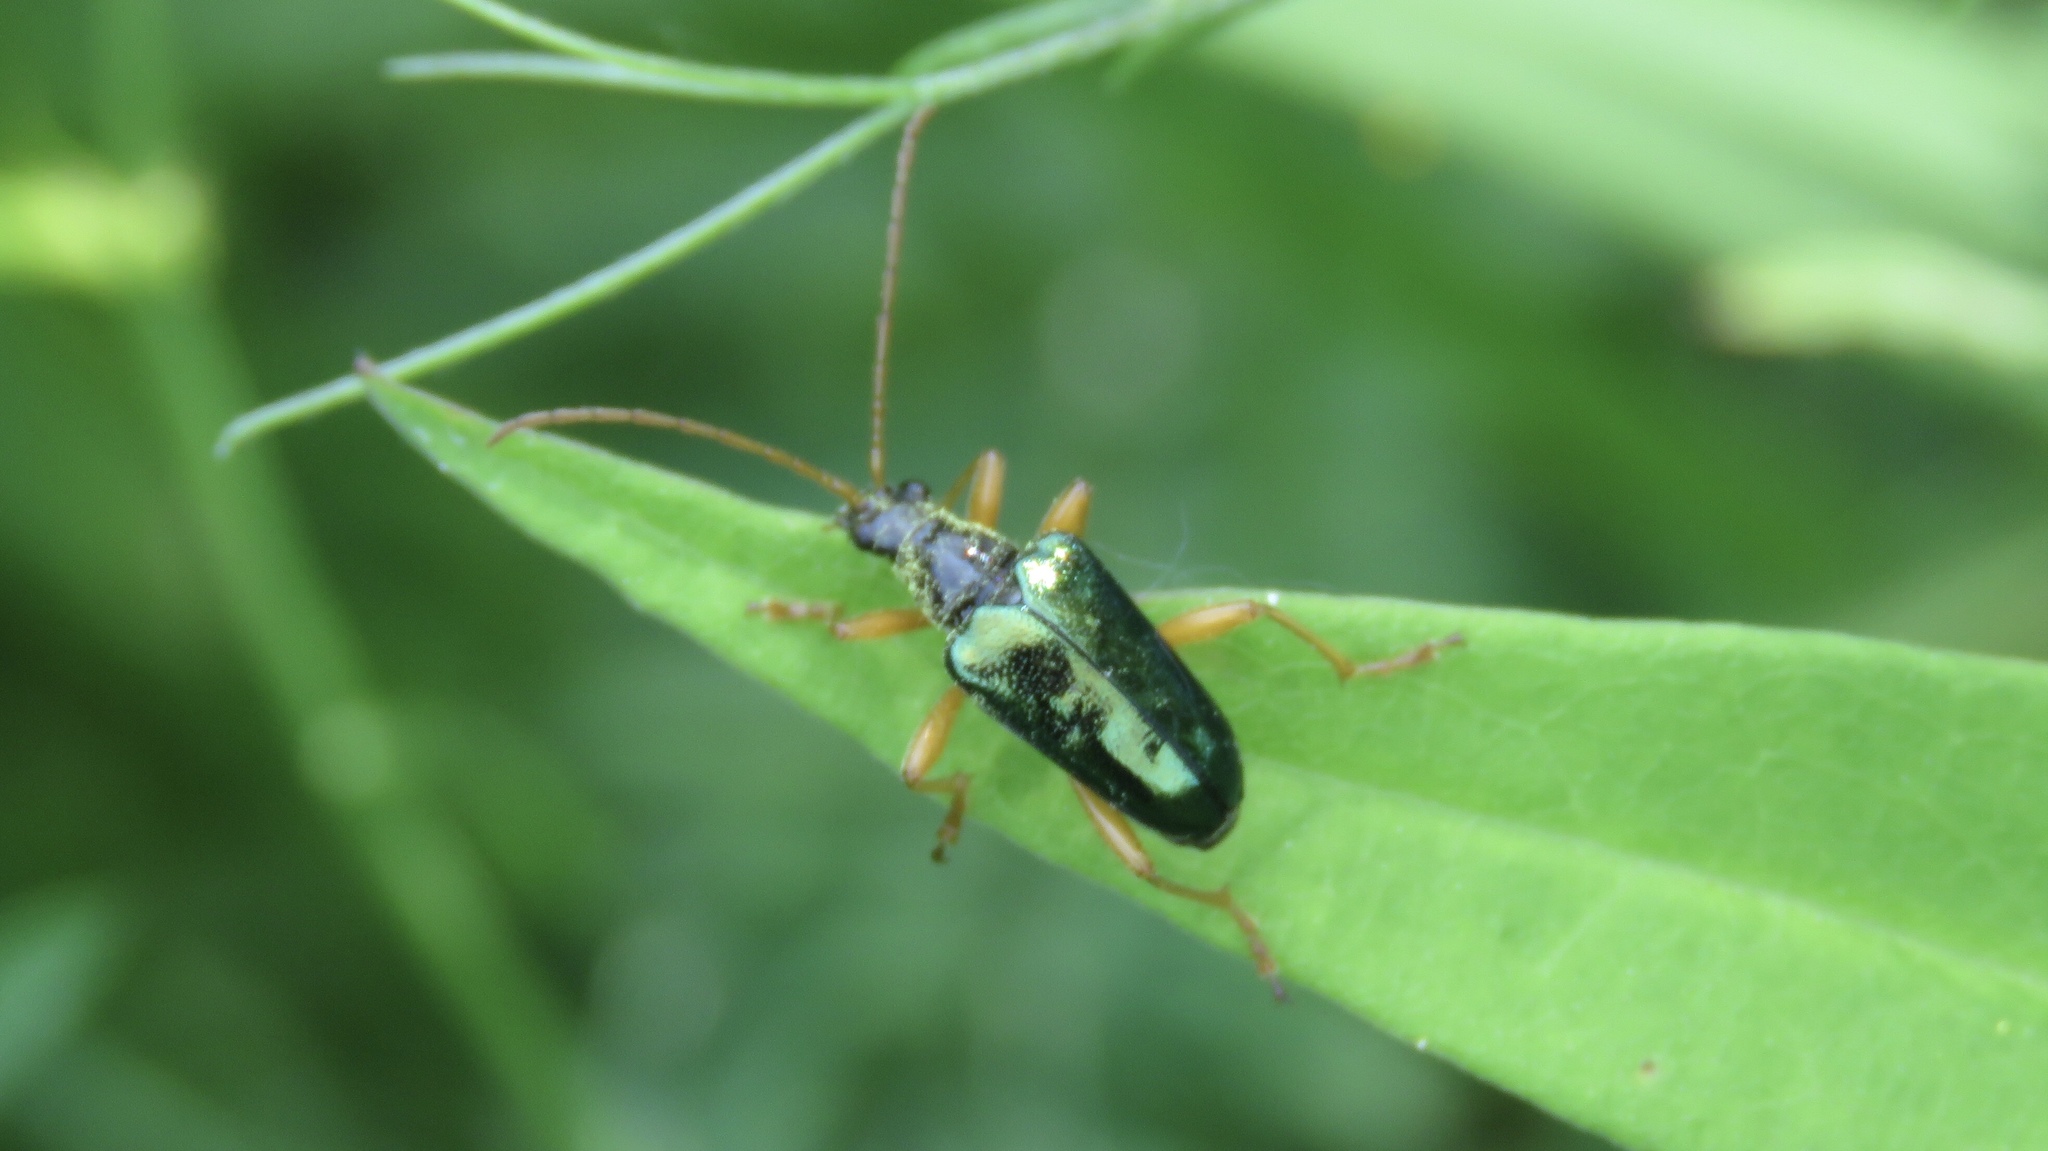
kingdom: Animalia
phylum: Arthropoda
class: Insecta
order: Coleoptera
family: Cerambycidae
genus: Gaurotes
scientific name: Gaurotes cyanipennis
